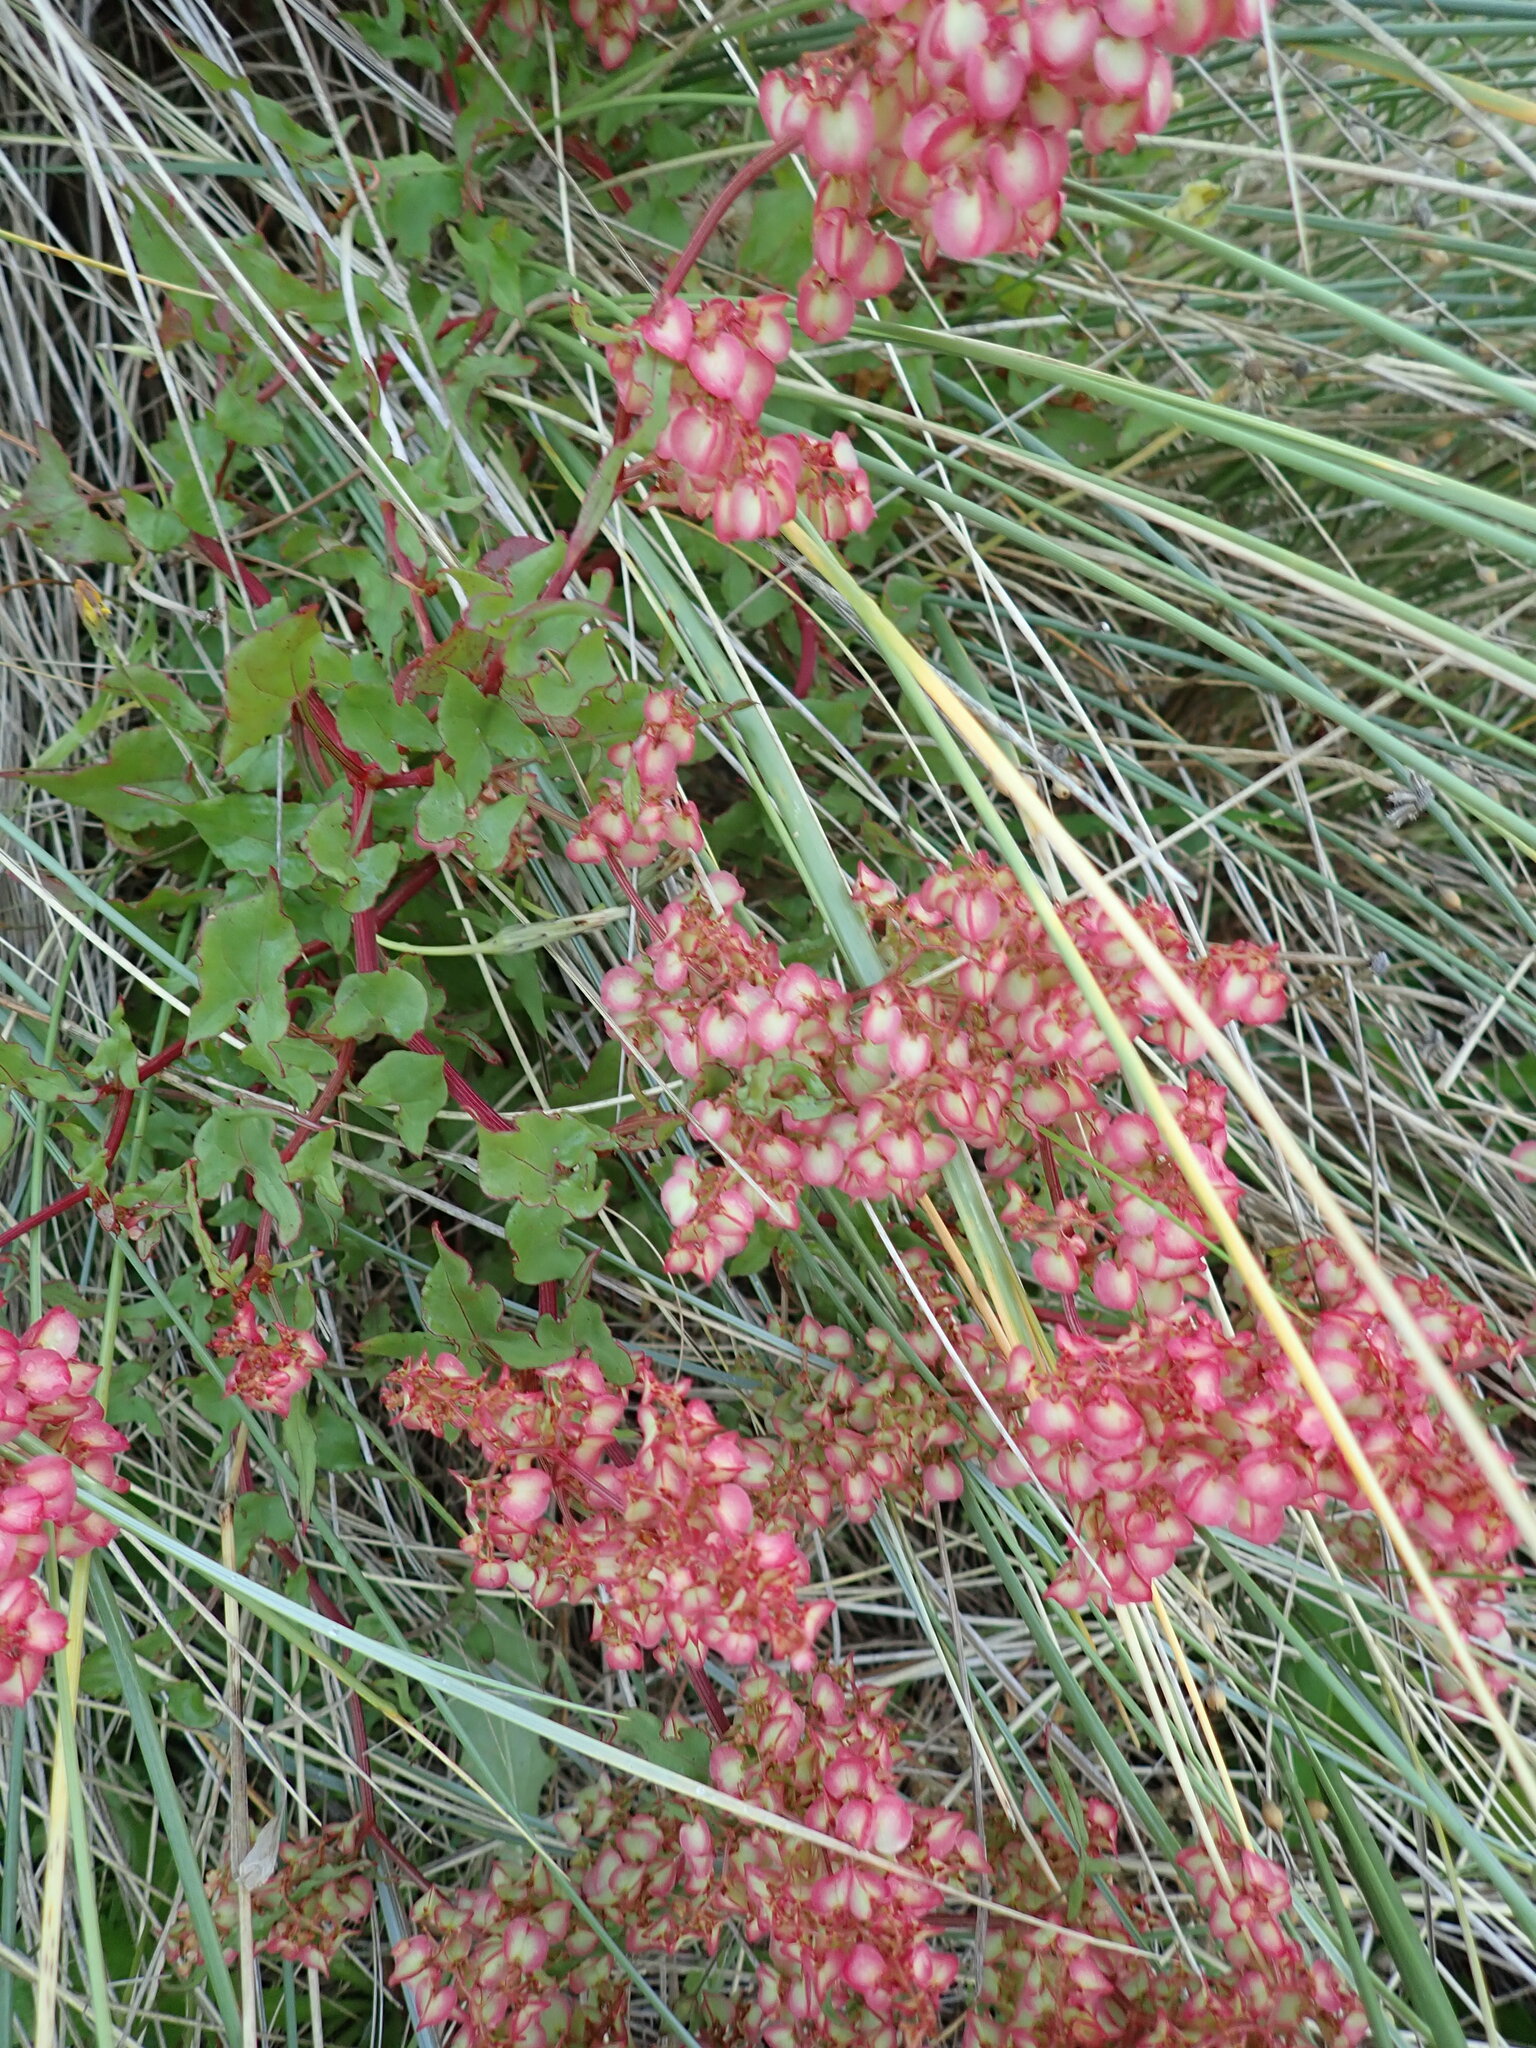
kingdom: Plantae
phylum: Tracheophyta
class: Magnoliopsida
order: Caryophyllales
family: Polygonaceae
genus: Rumex
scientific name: Rumex sagittatus
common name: Climbing dock
